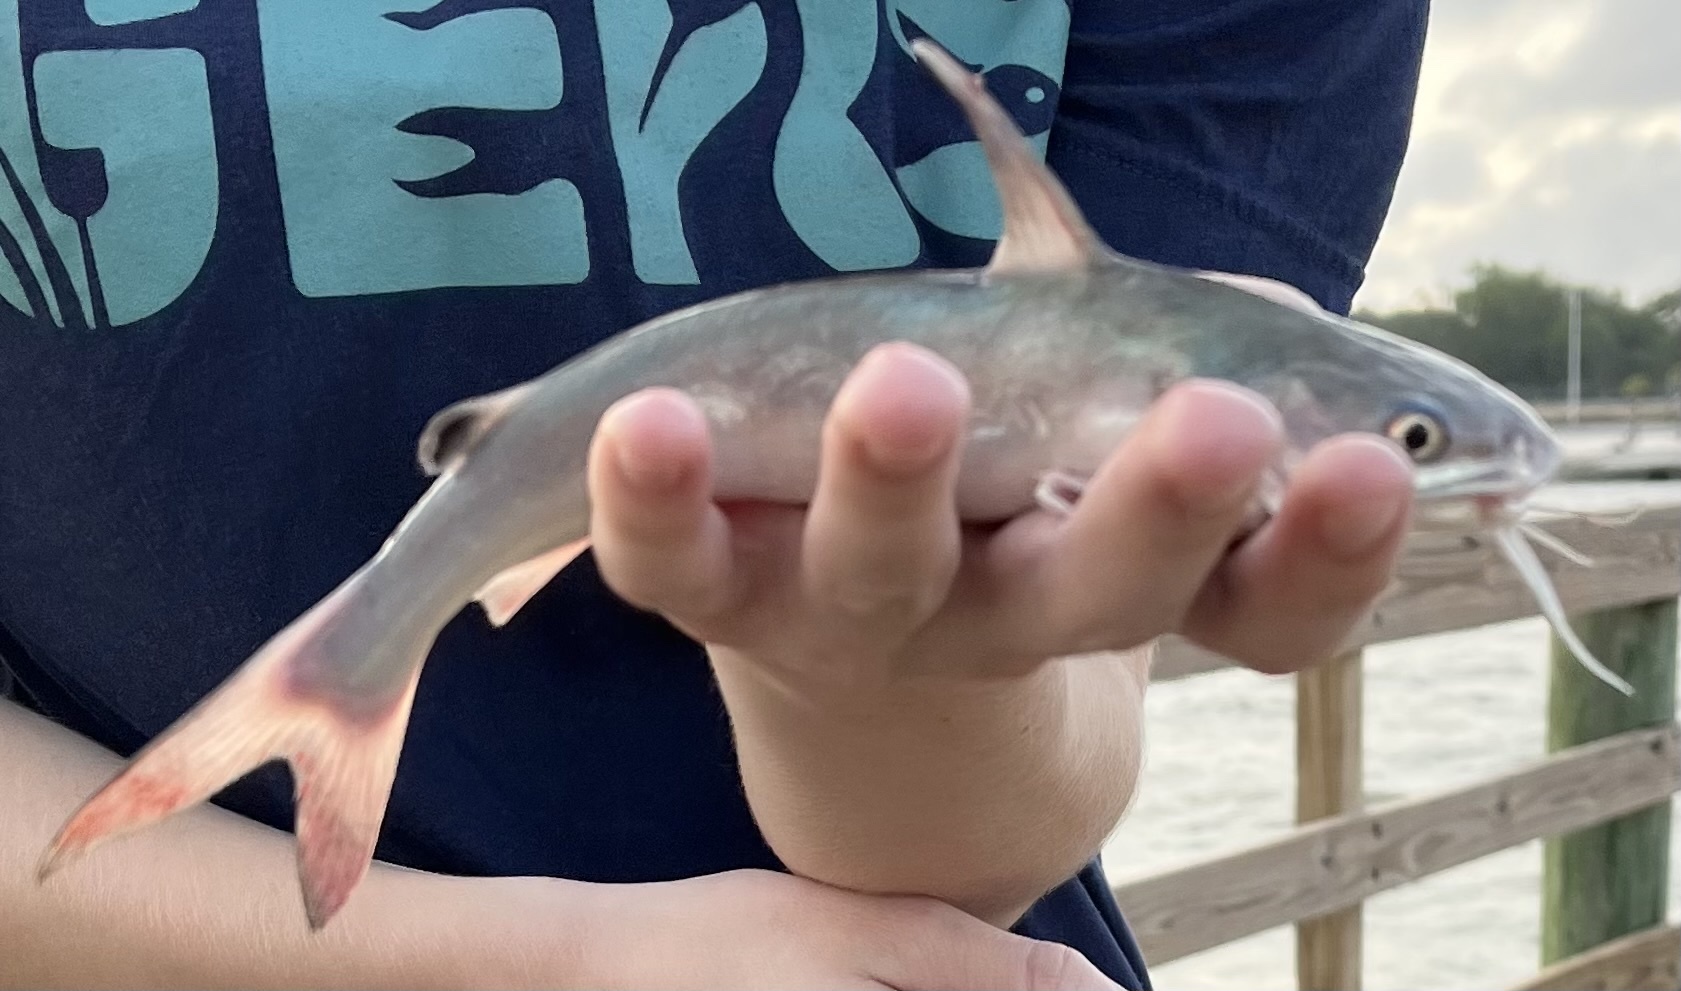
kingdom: Animalia
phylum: Chordata
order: Siluriformes
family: Ariidae
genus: Ariopsis
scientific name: Ariopsis felis
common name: Hardhead catfish
